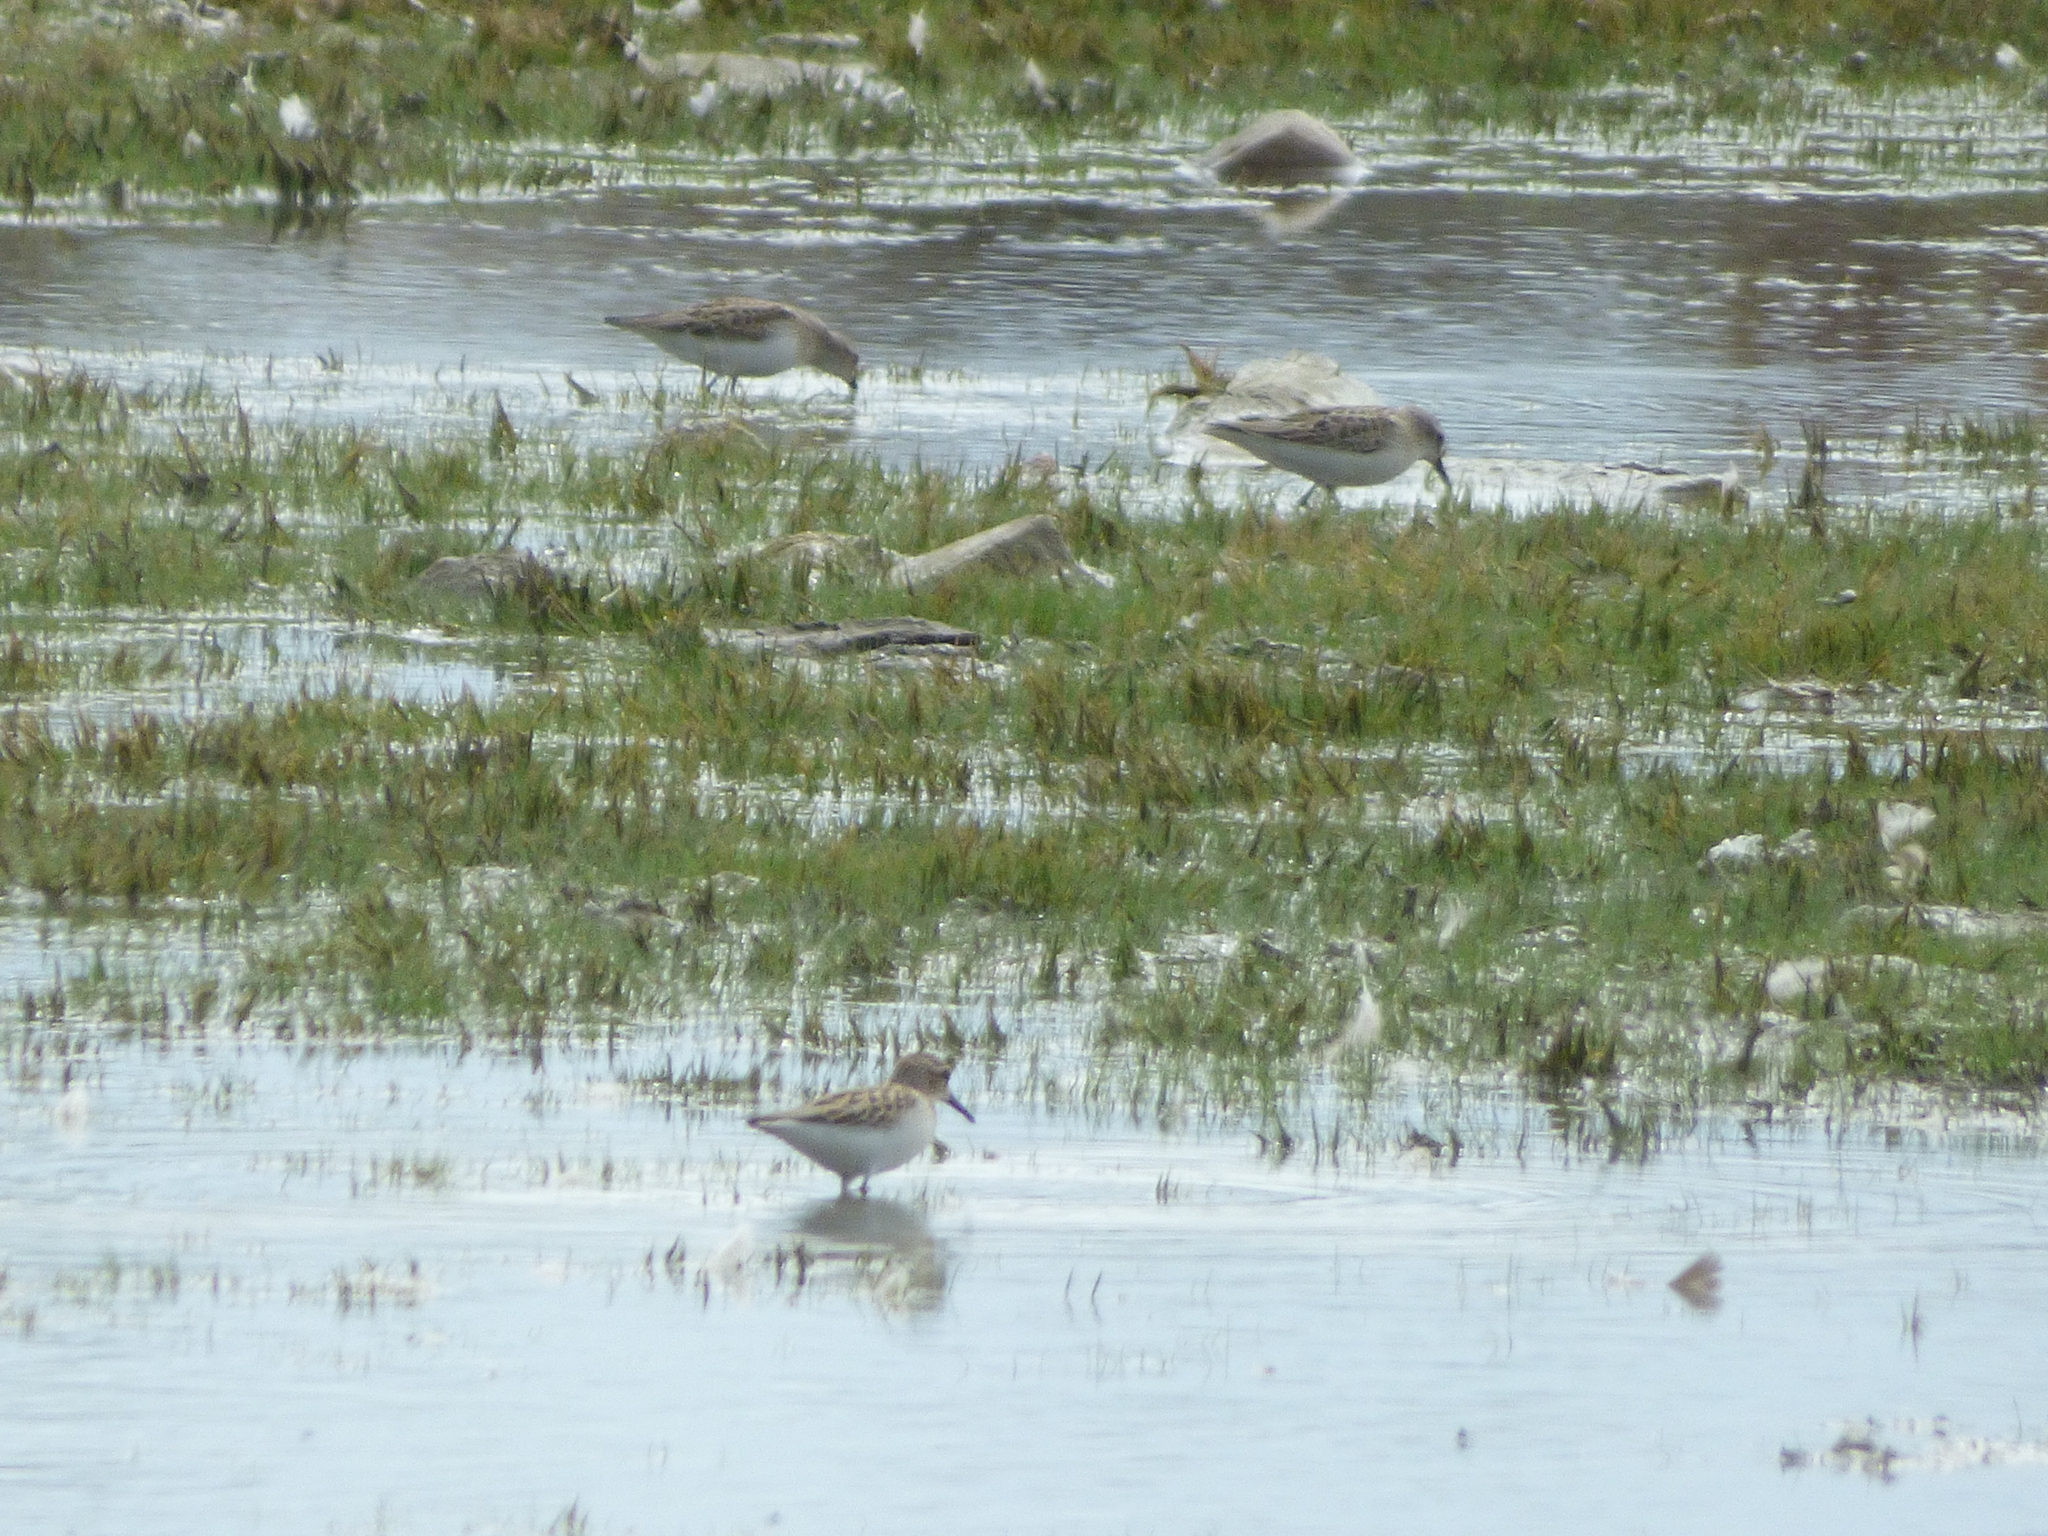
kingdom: Animalia
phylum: Chordata
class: Aves
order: Charadriiformes
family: Scolopacidae
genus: Calidris
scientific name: Calidris pusilla
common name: Semipalmated sandpiper
